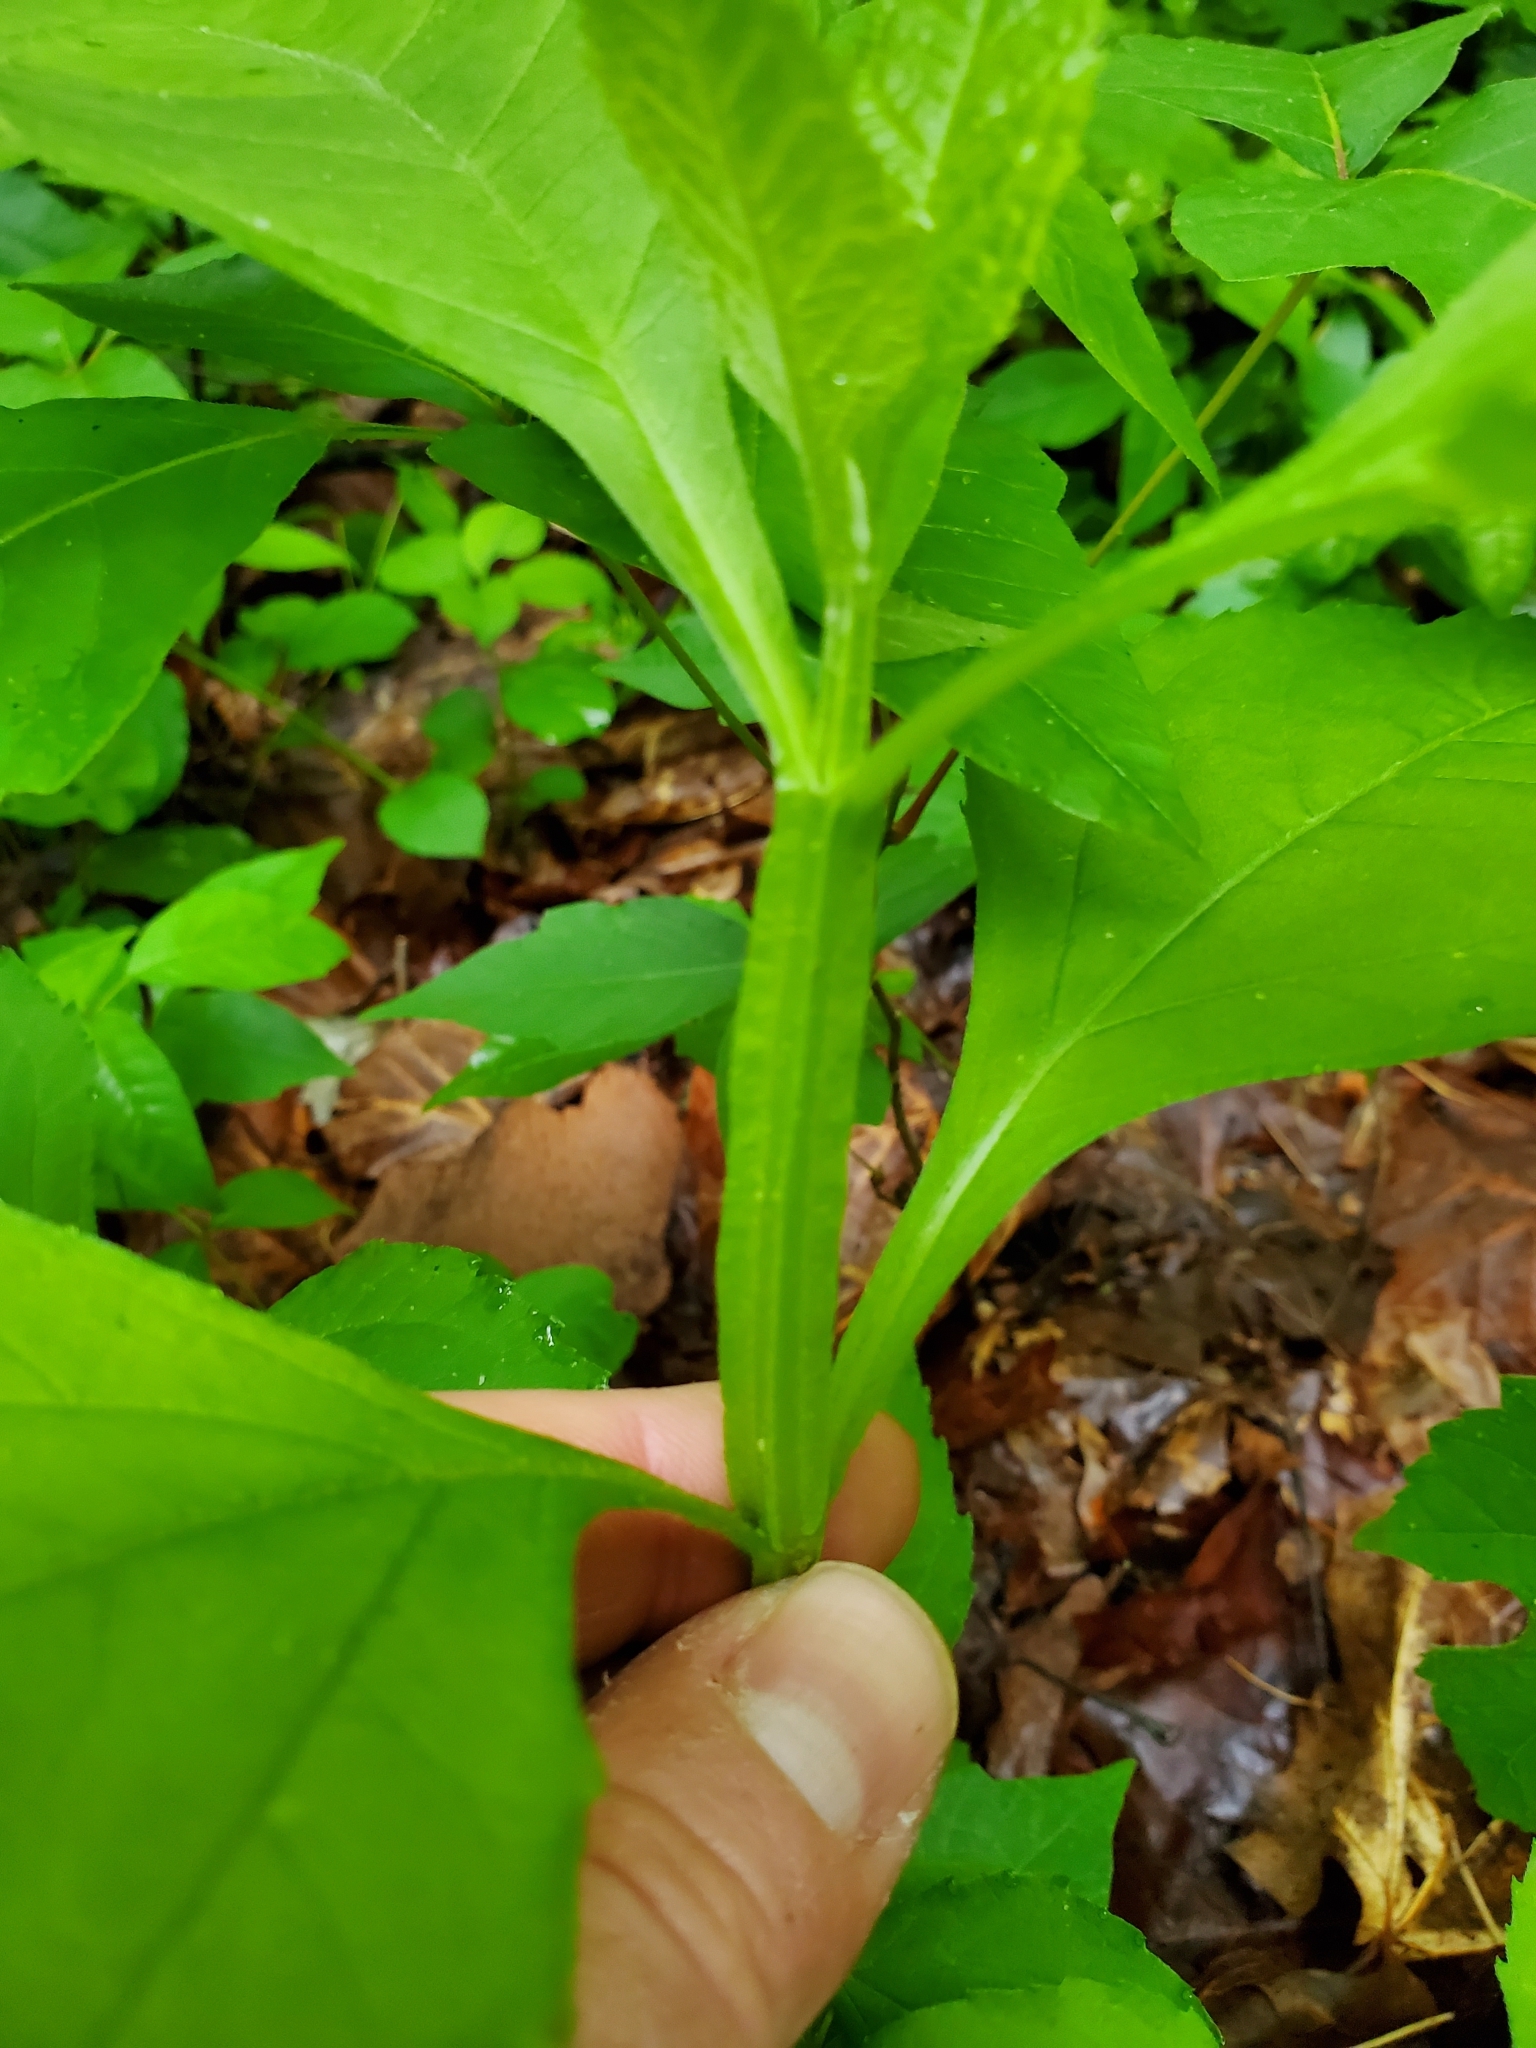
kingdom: Plantae
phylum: Tracheophyta
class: Magnoliopsida
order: Asterales
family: Asteraceae
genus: Verbesina
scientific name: Verbesina occidentalis
